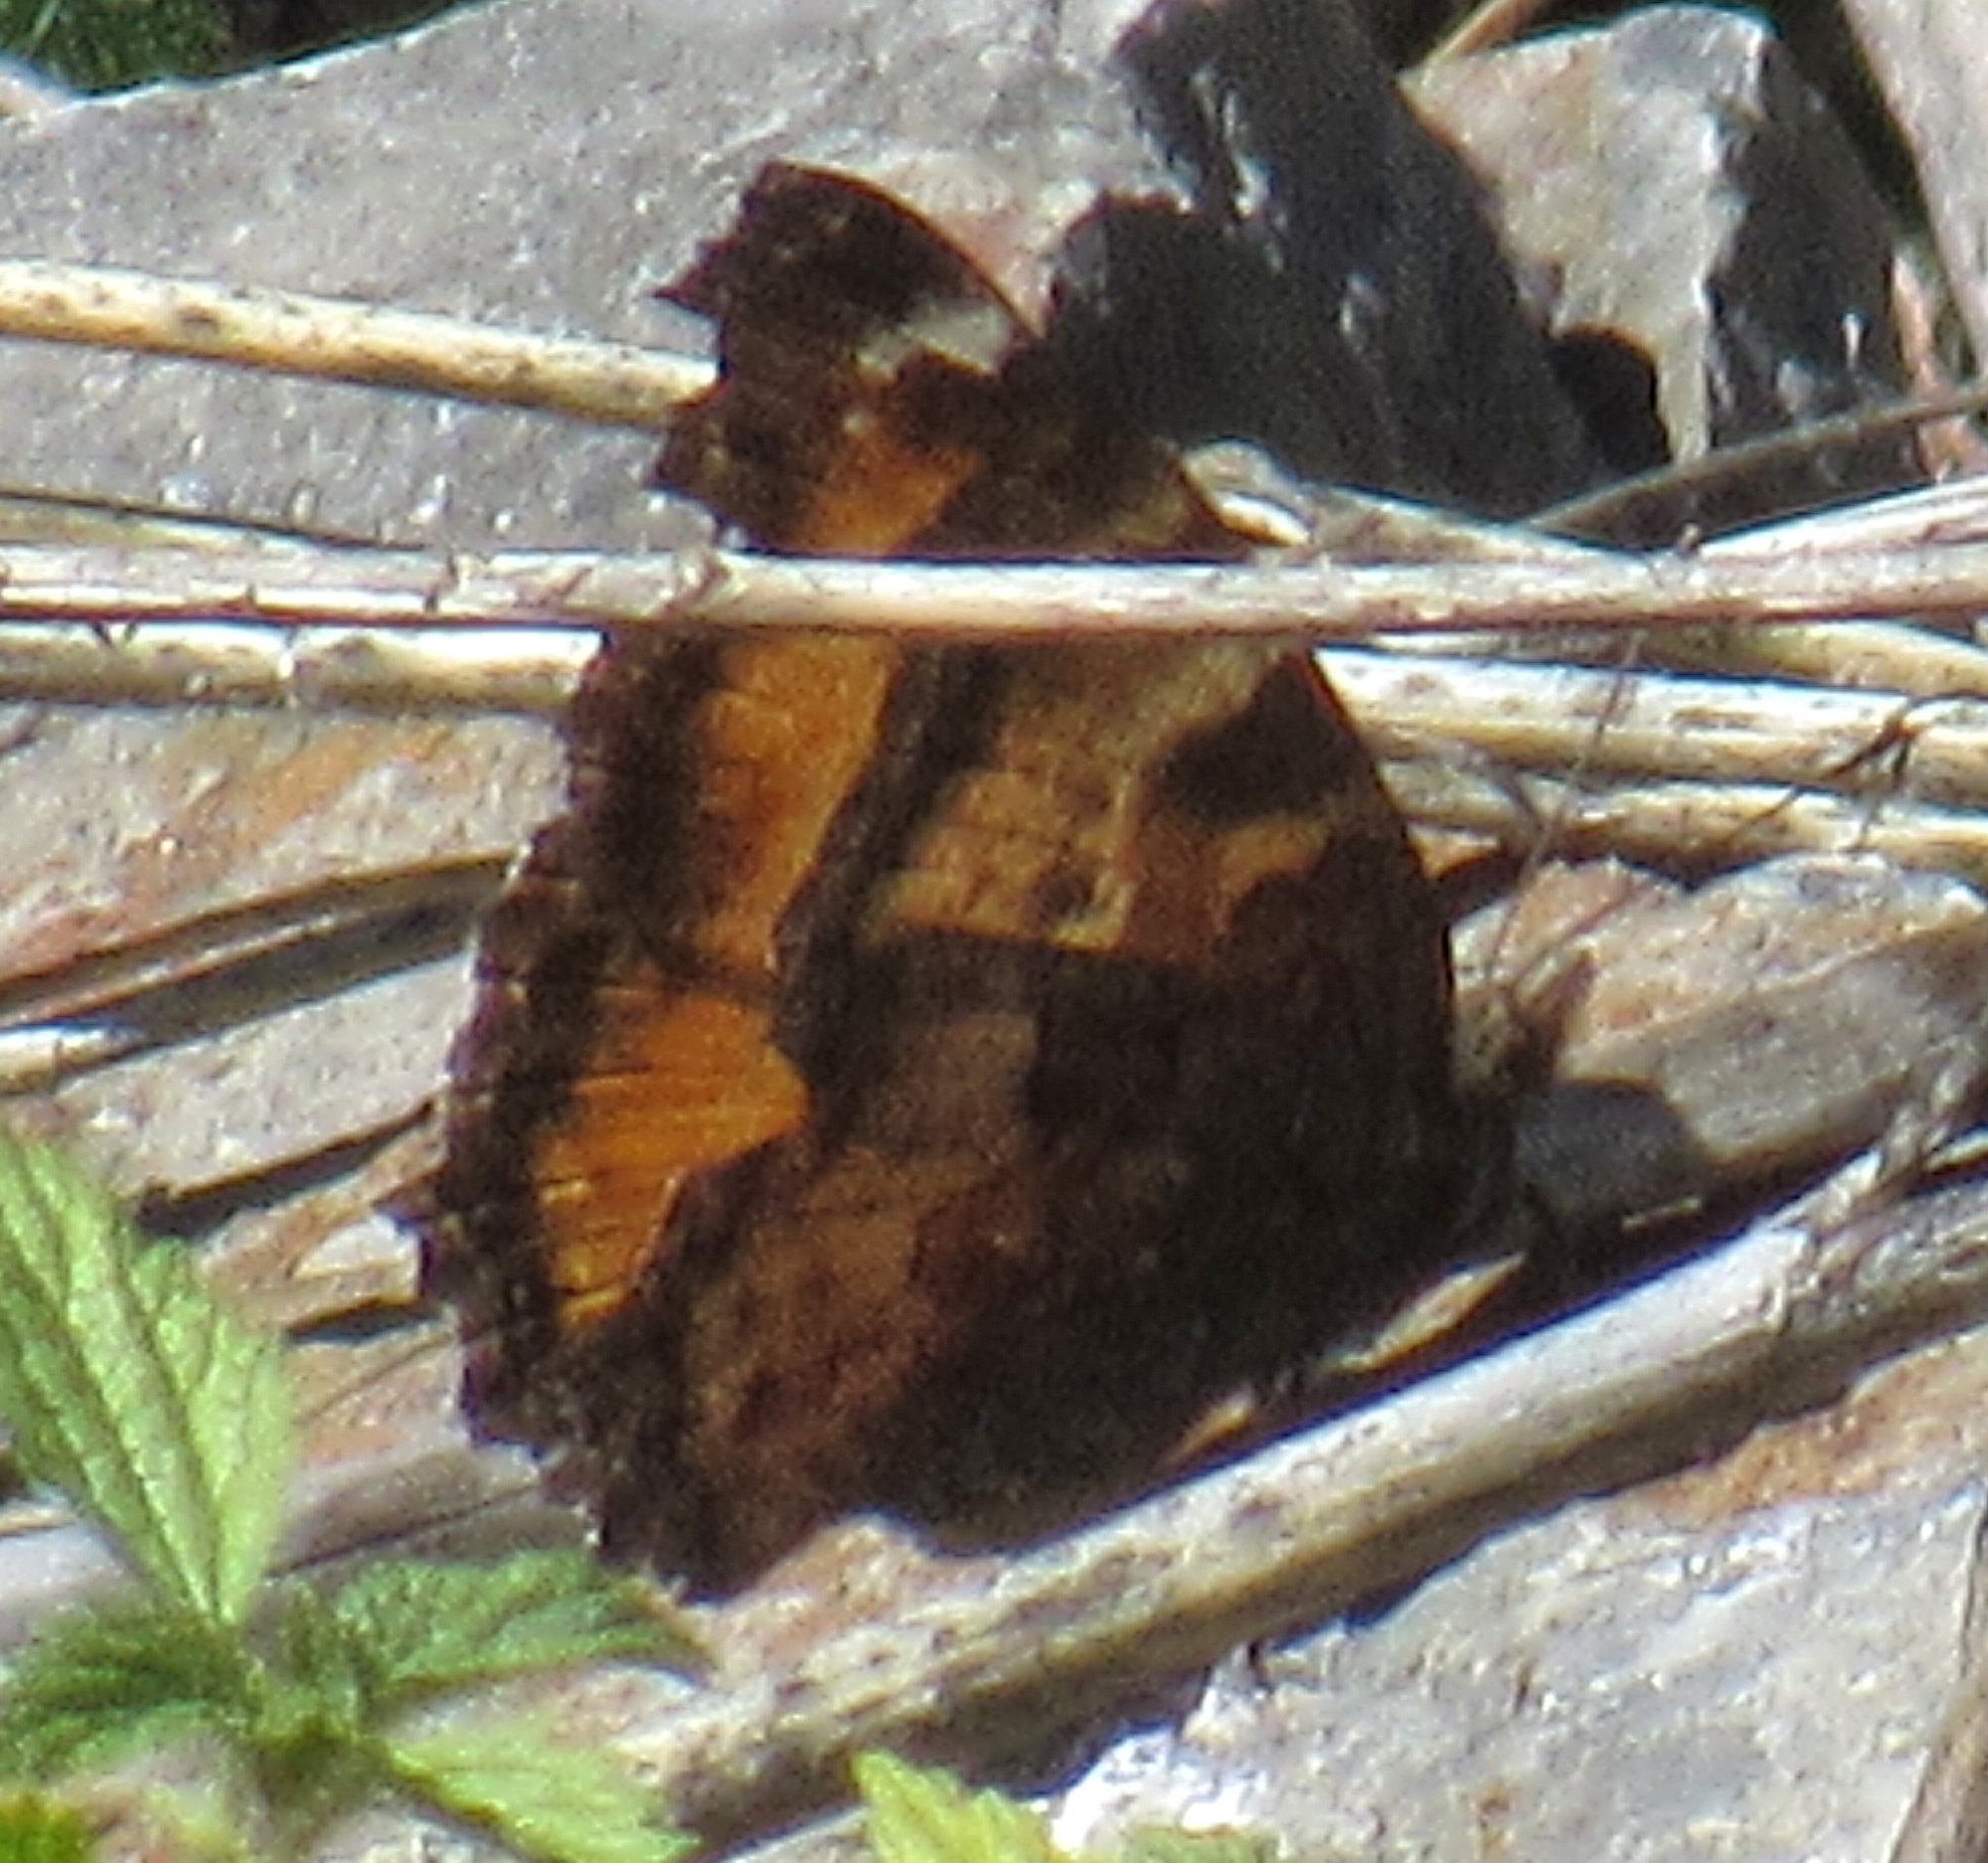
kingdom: Animalia
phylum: Arthropoda
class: Insecta
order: Lepidoptera
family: Nymphalidae
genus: Nymphalis
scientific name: Nymphalis californica
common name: California tortoiseshell
